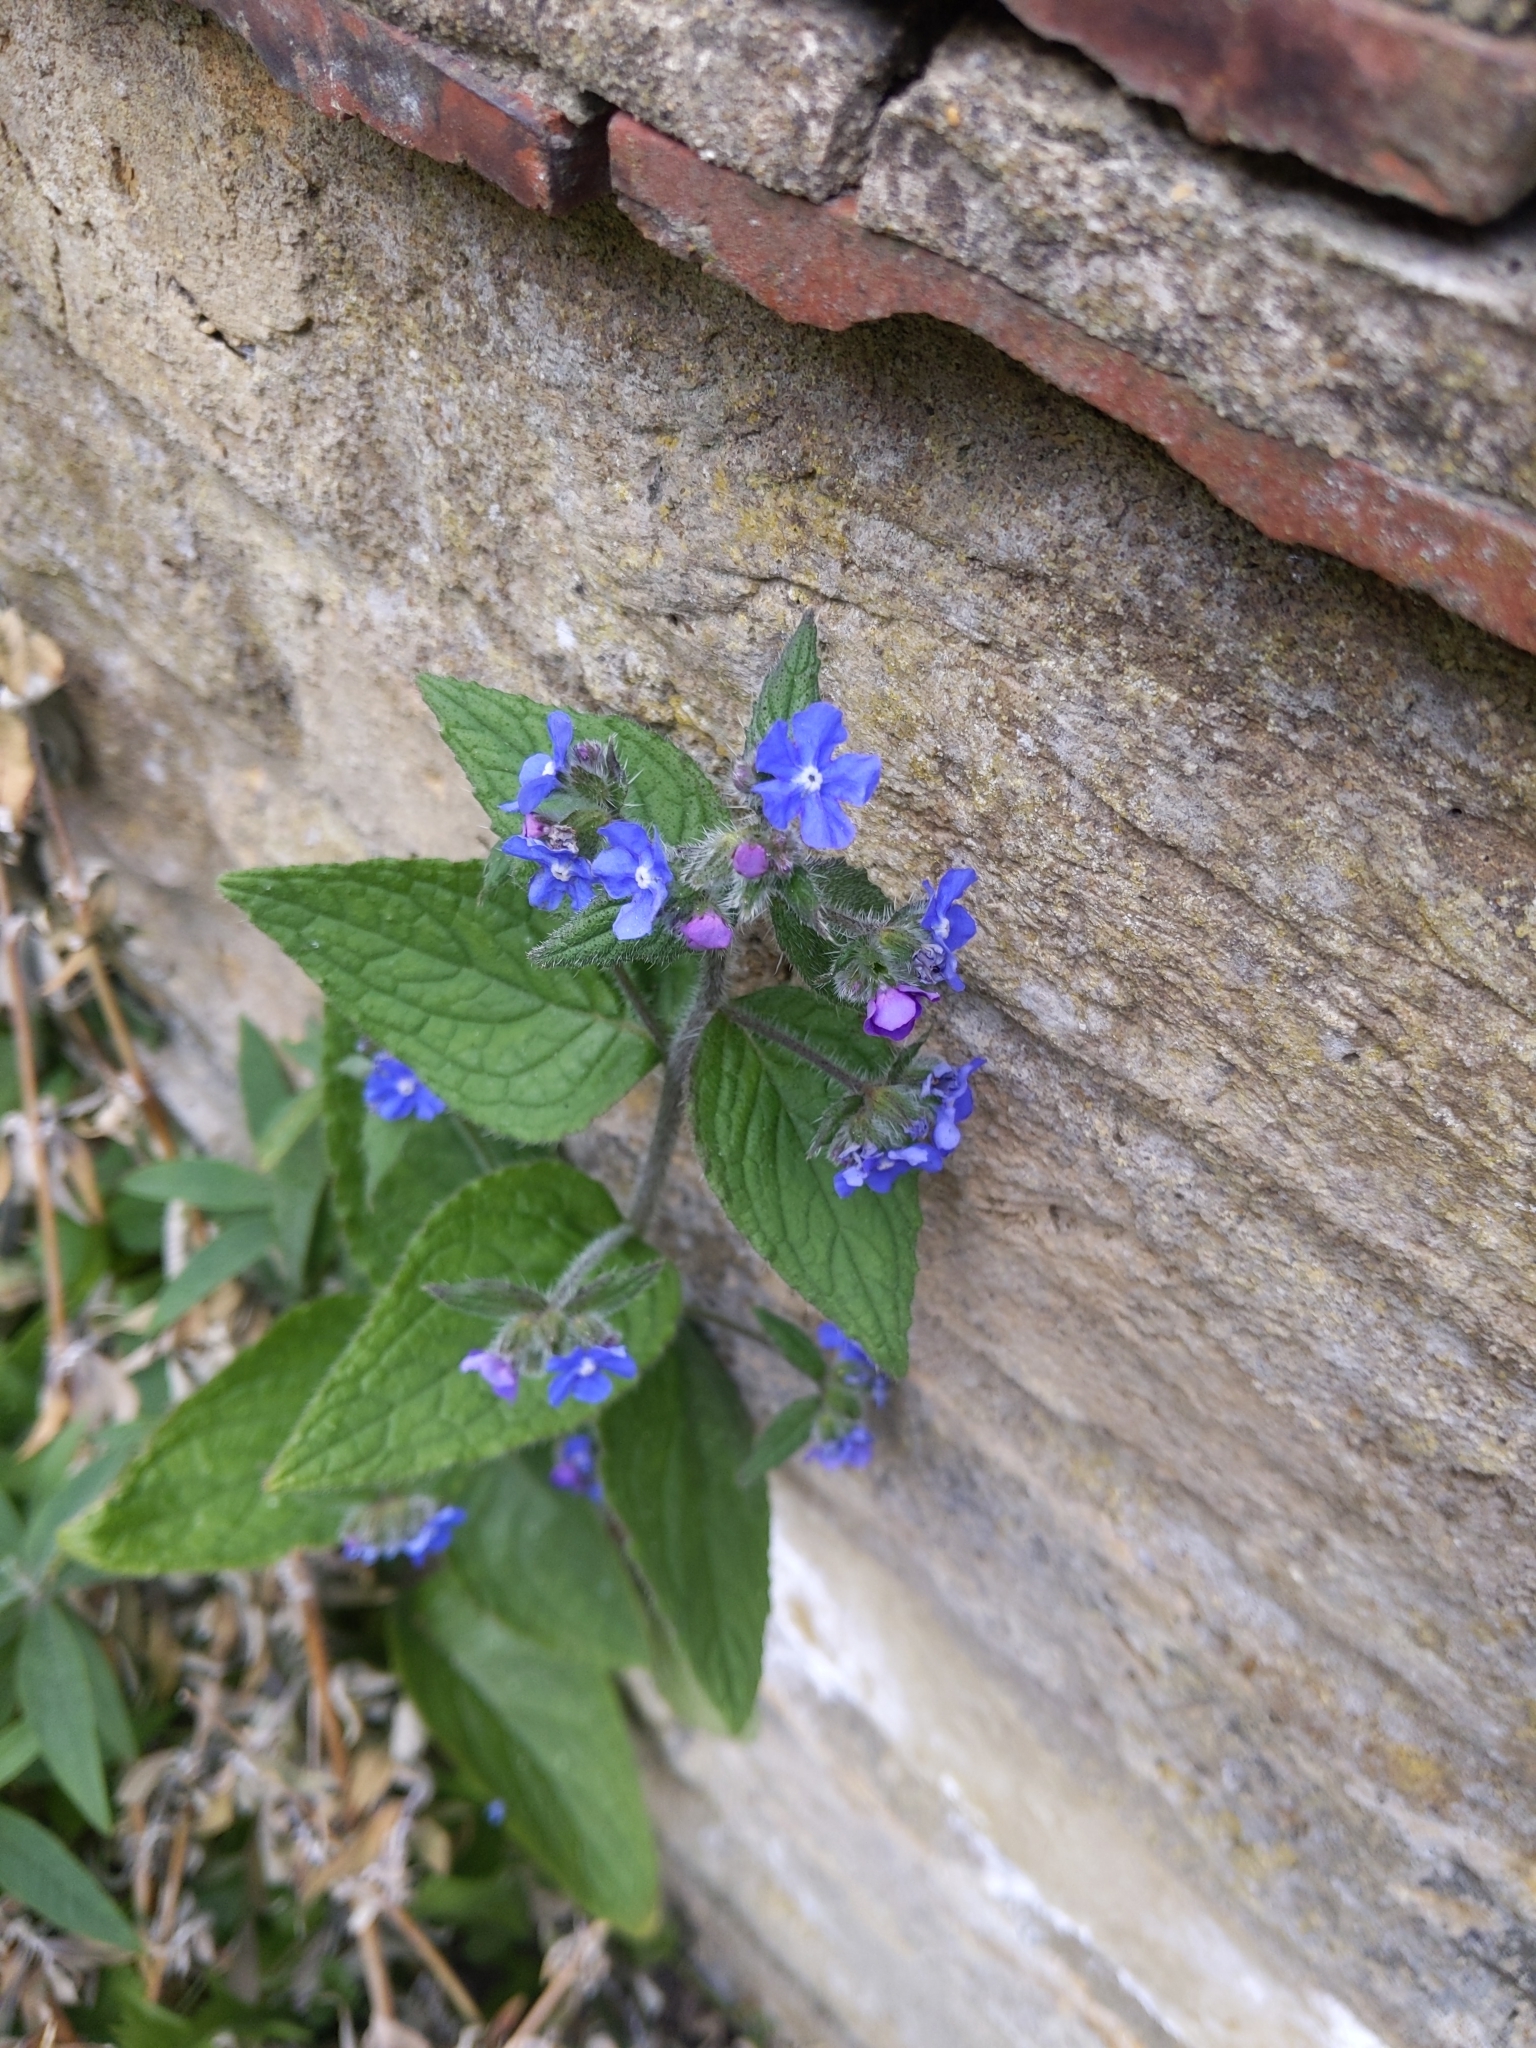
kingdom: Plantae
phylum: Tracheophyta
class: Magnoliopsida
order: Boraginales
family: Boraginaceae
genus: Pentaglottis
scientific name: Pentaglottis sempervirens
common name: Green alkanet
